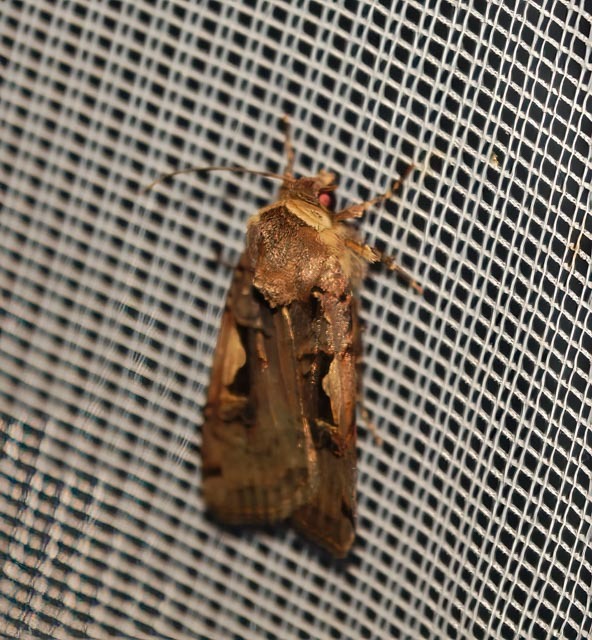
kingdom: Animalia
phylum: Arthropoda
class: Insecta
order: Lepidoptera
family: Noctuidae
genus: Xestia
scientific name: Xestia c-nigrum
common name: Setaceous hebrew character
